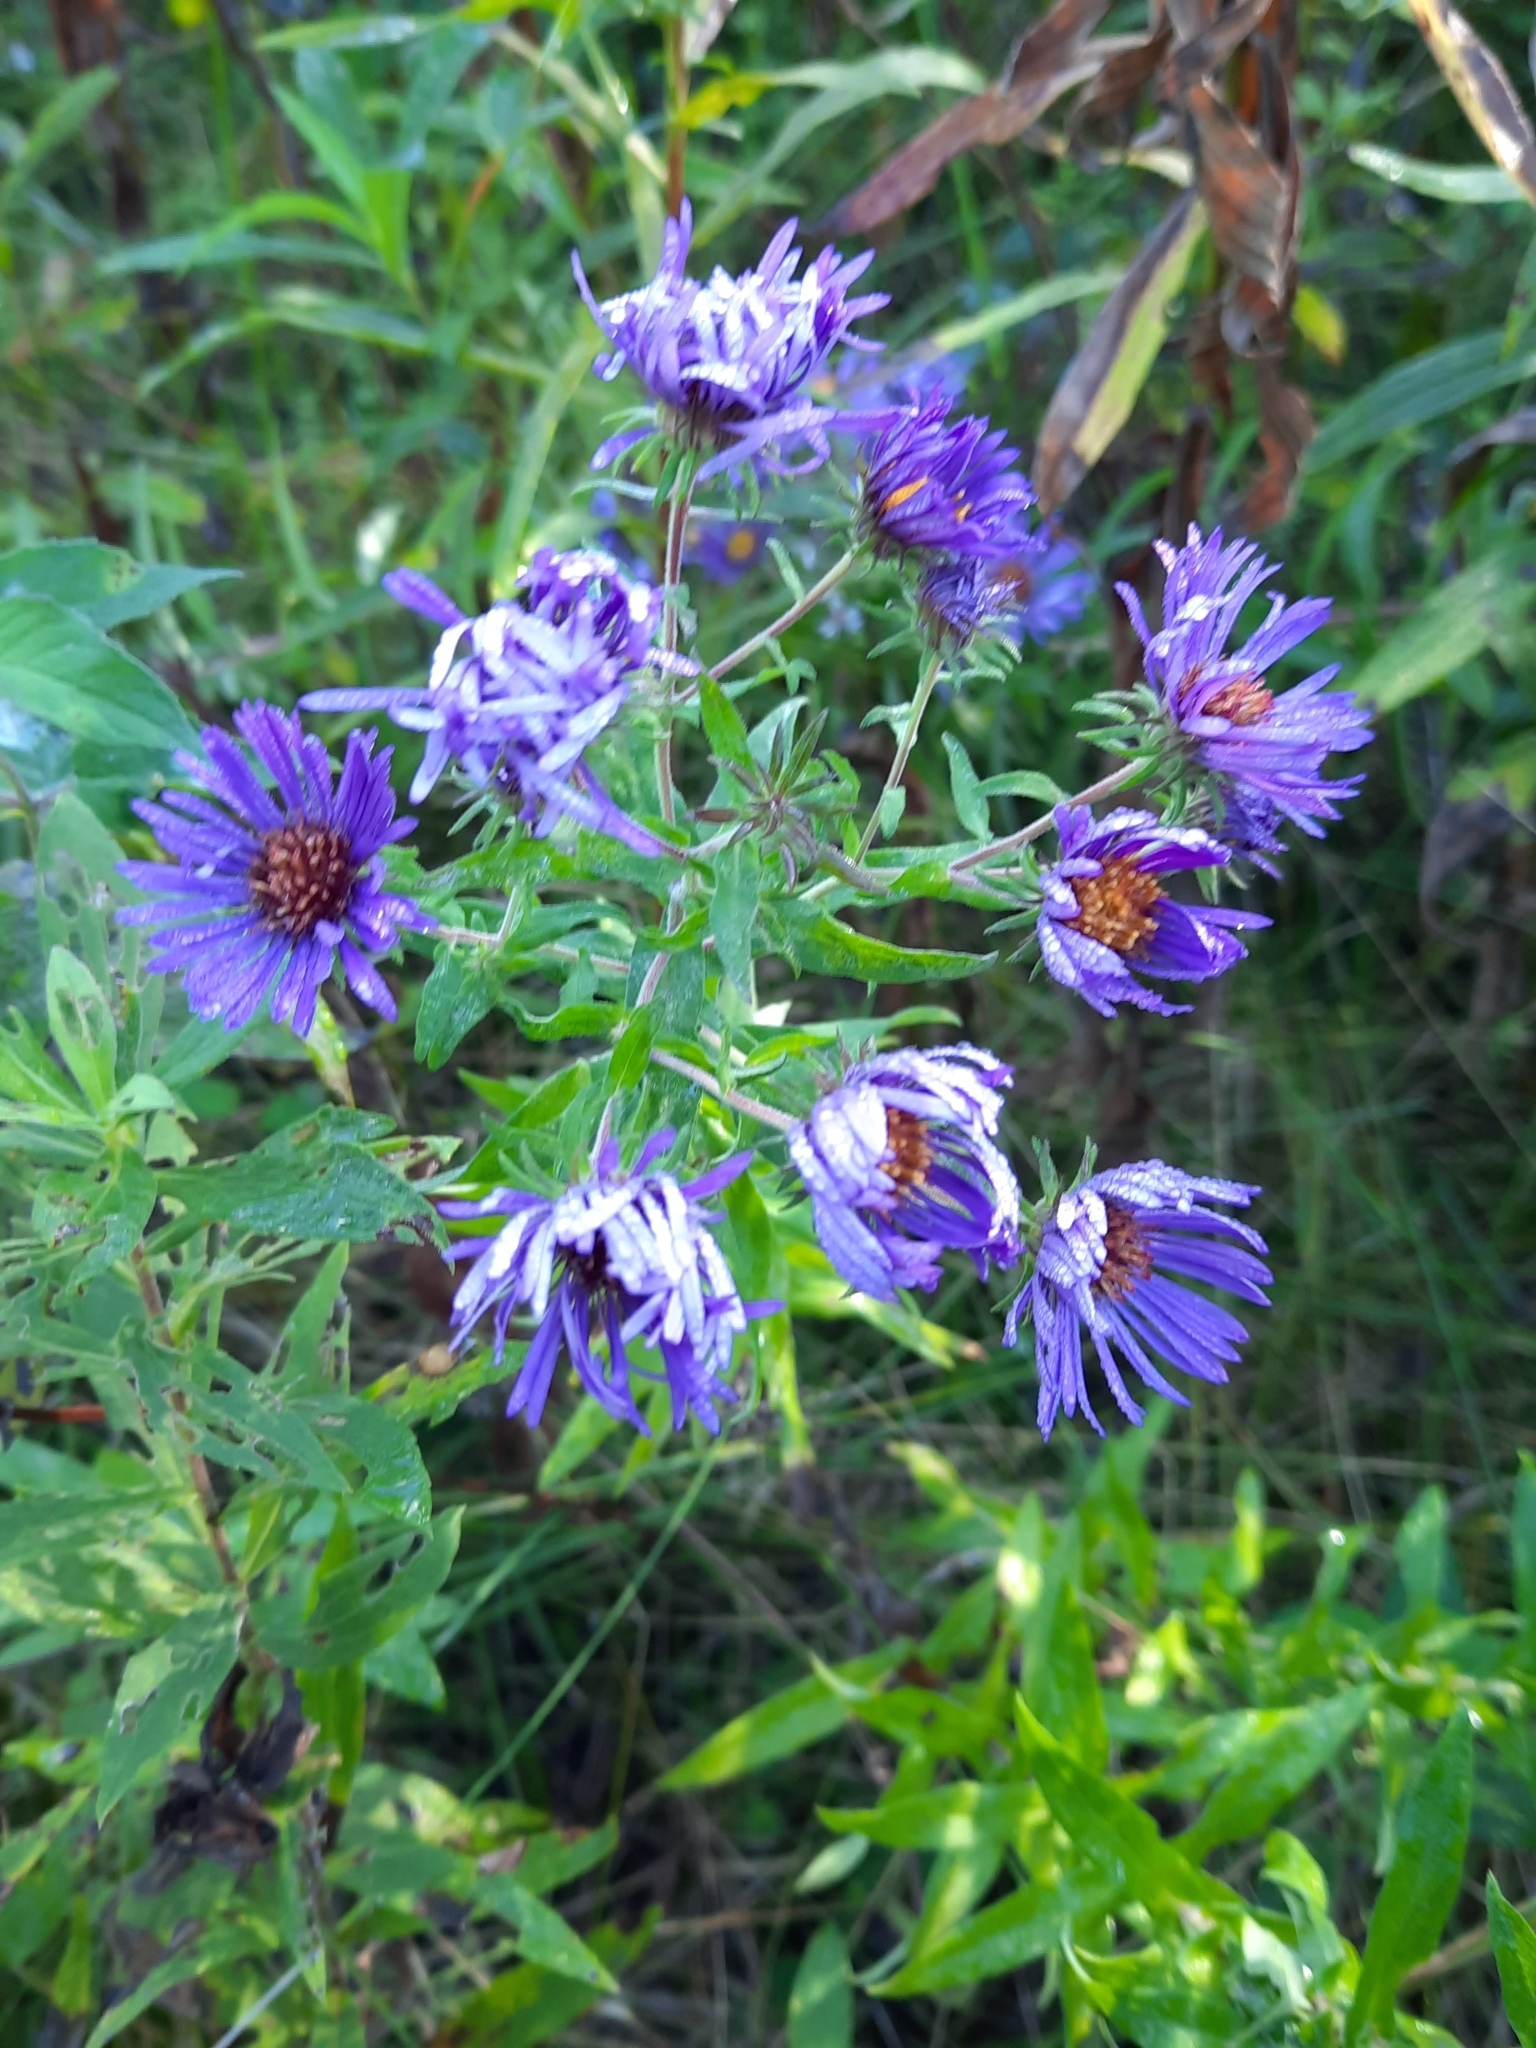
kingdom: Plantae
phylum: Tracheophyta
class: Magnoliopsida
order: Asterales
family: Asteraceae
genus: Symphyotrichum
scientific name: Symphyotrichum novae-angliae
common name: Michaelmas daisy
